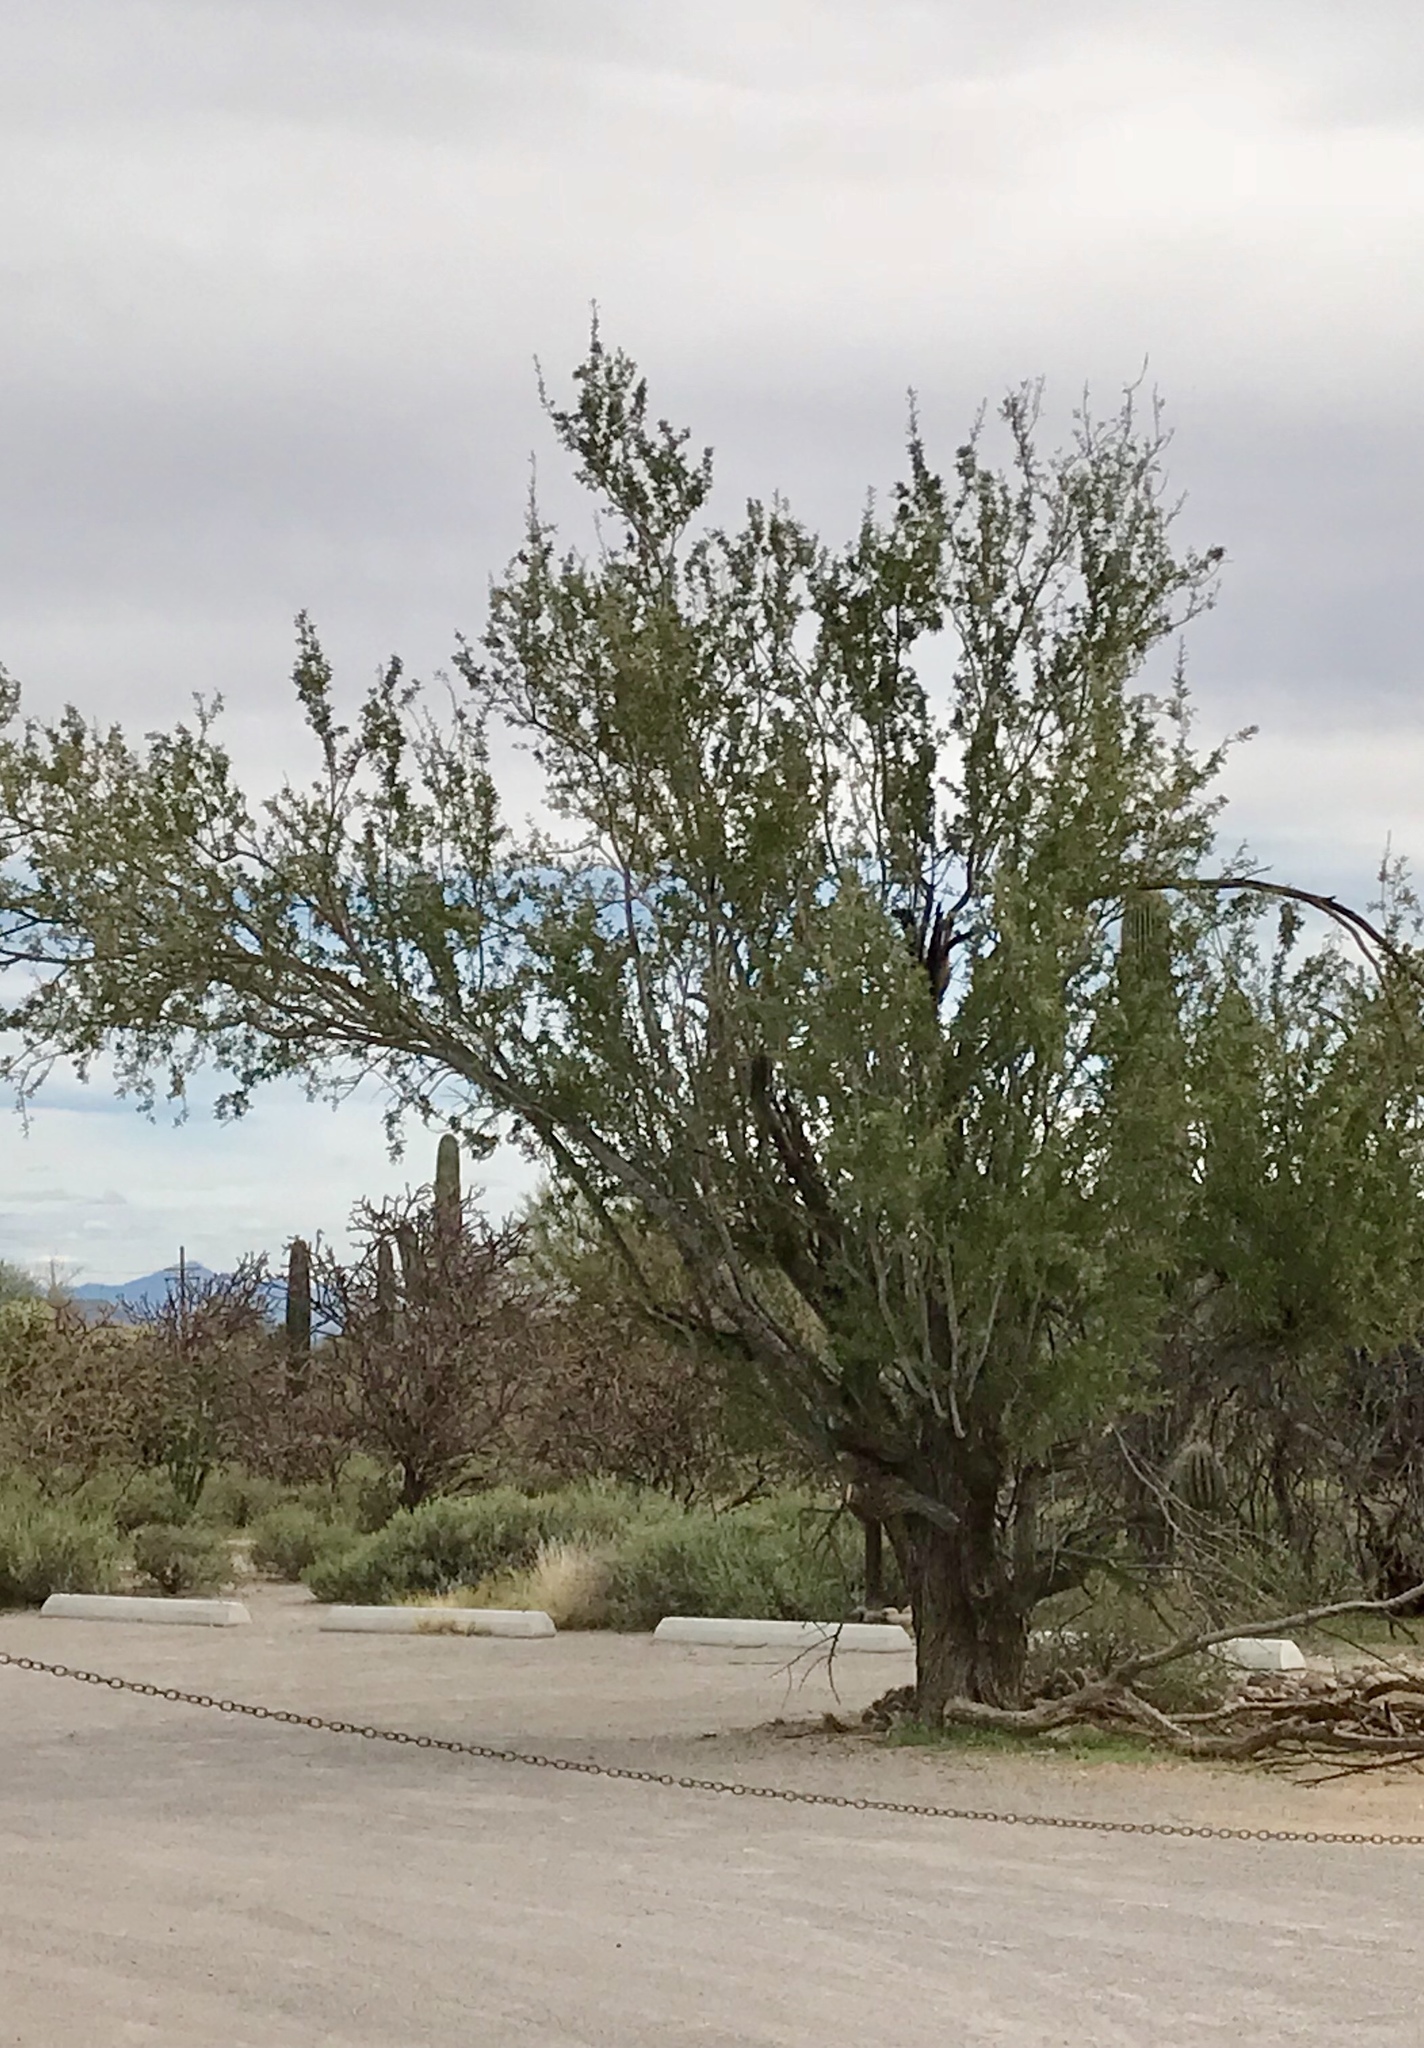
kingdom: Plantae
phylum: Tracheophyta
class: Magnoliopsida
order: Fabales
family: Fabaceae
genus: Olneya
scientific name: Olneya tesota
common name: Desert ironwood
